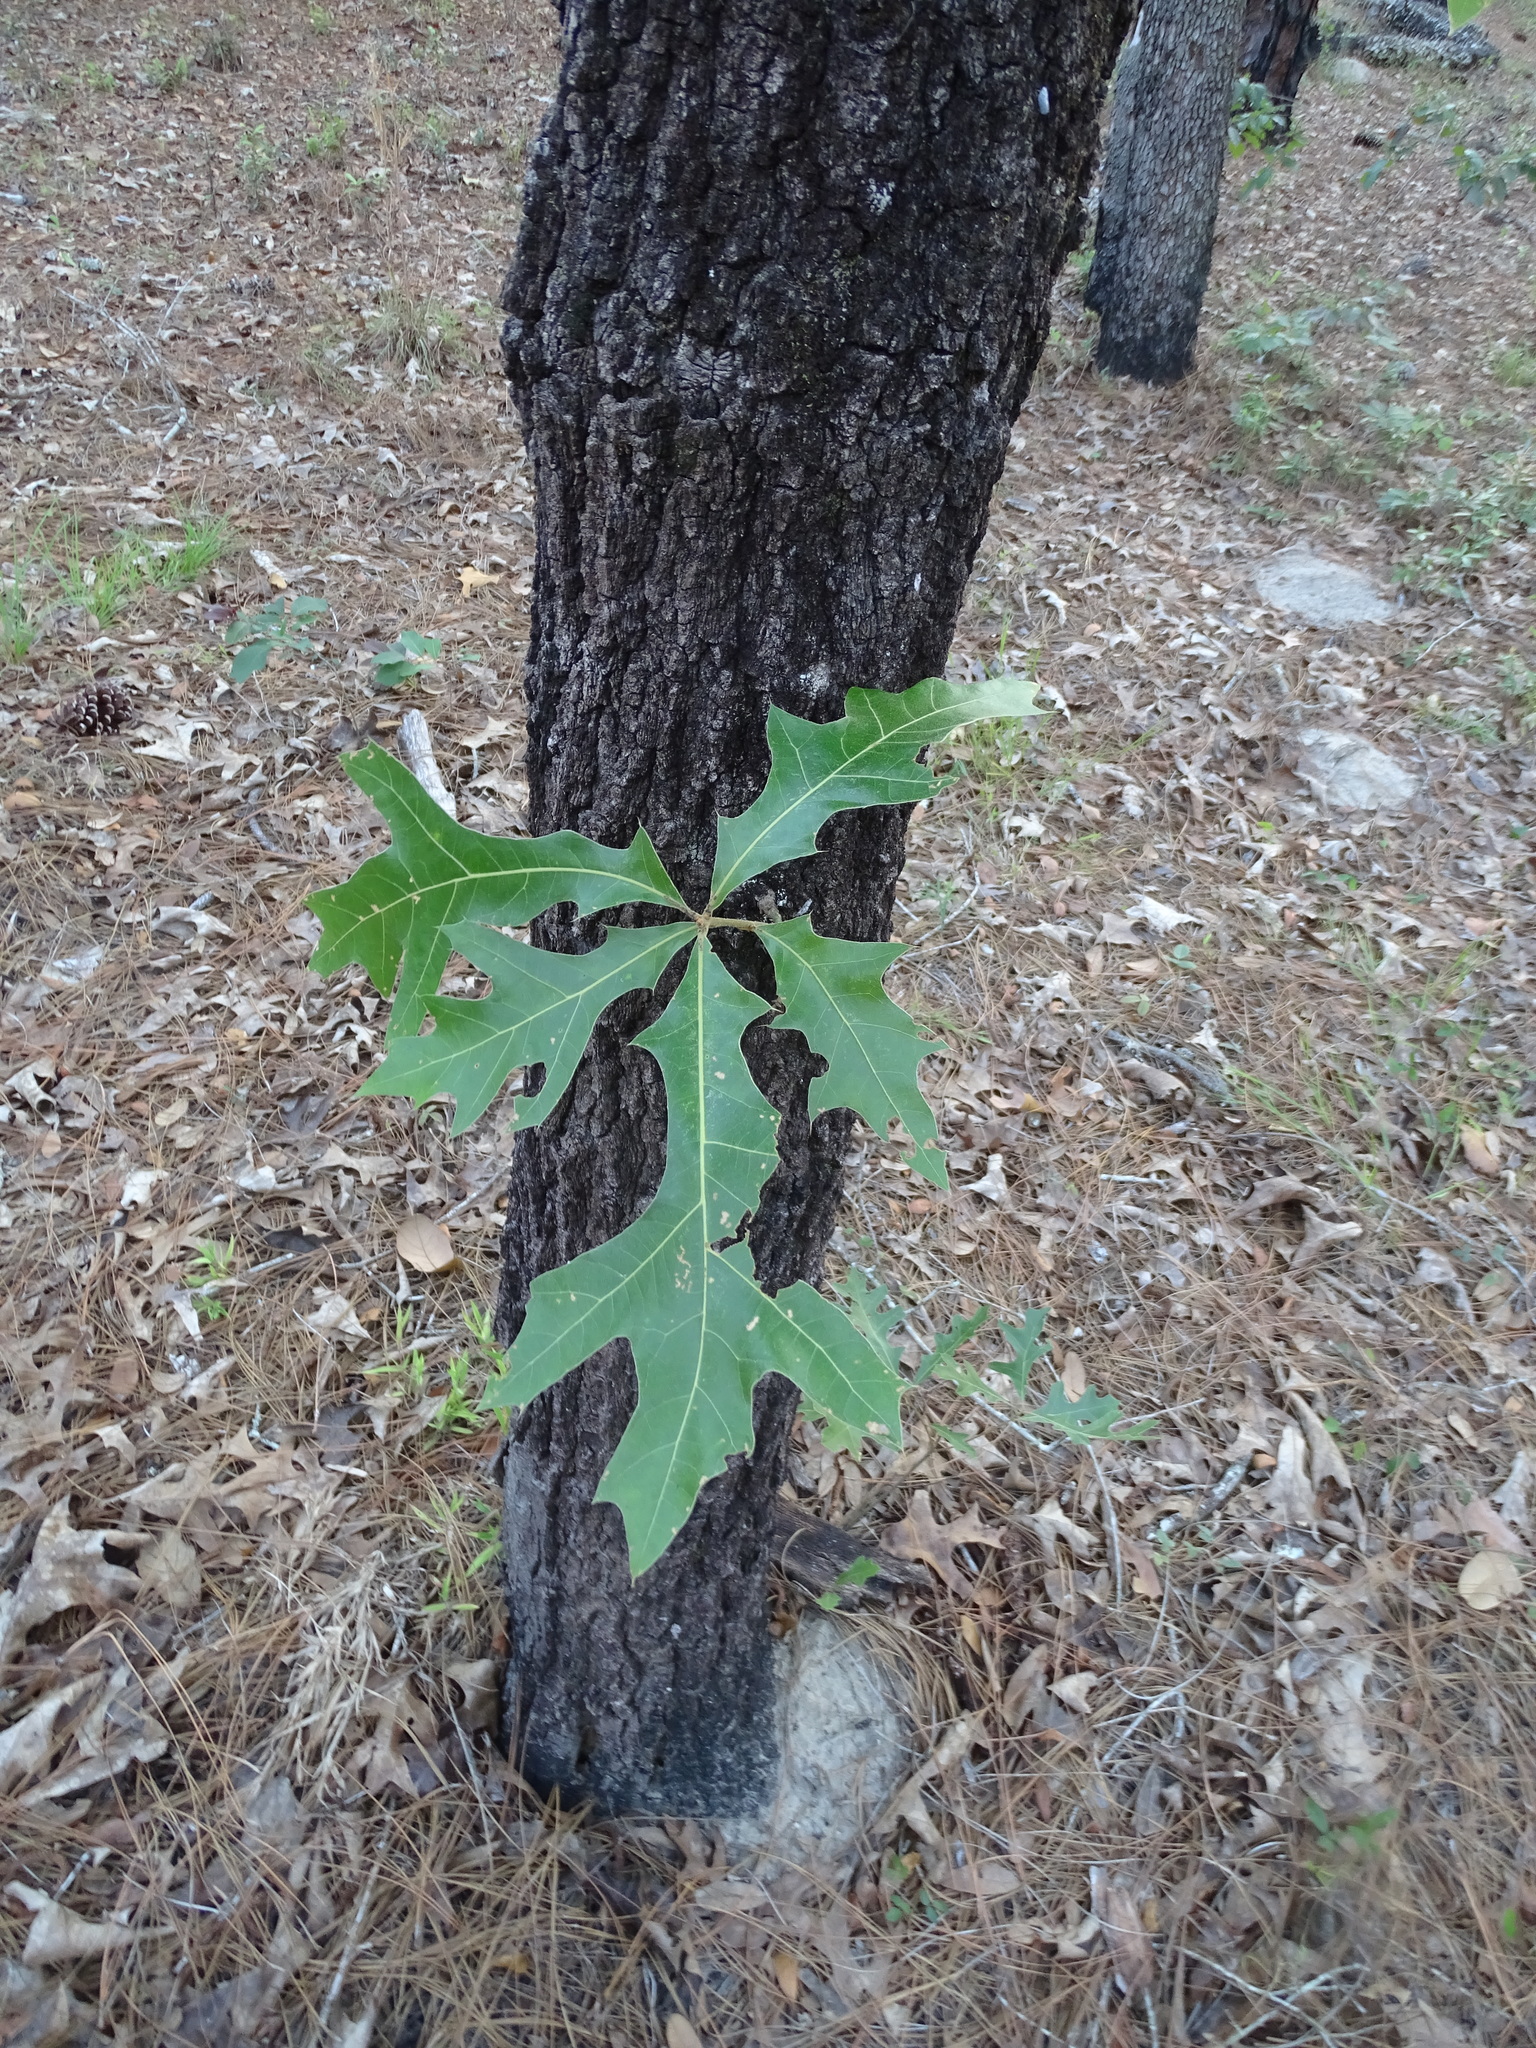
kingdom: Plantae
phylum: Tracheophyta
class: Magnoliopsida
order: Fagales
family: Fagaceae
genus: Quercus
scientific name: Quercus laevis
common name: Turkey oak
